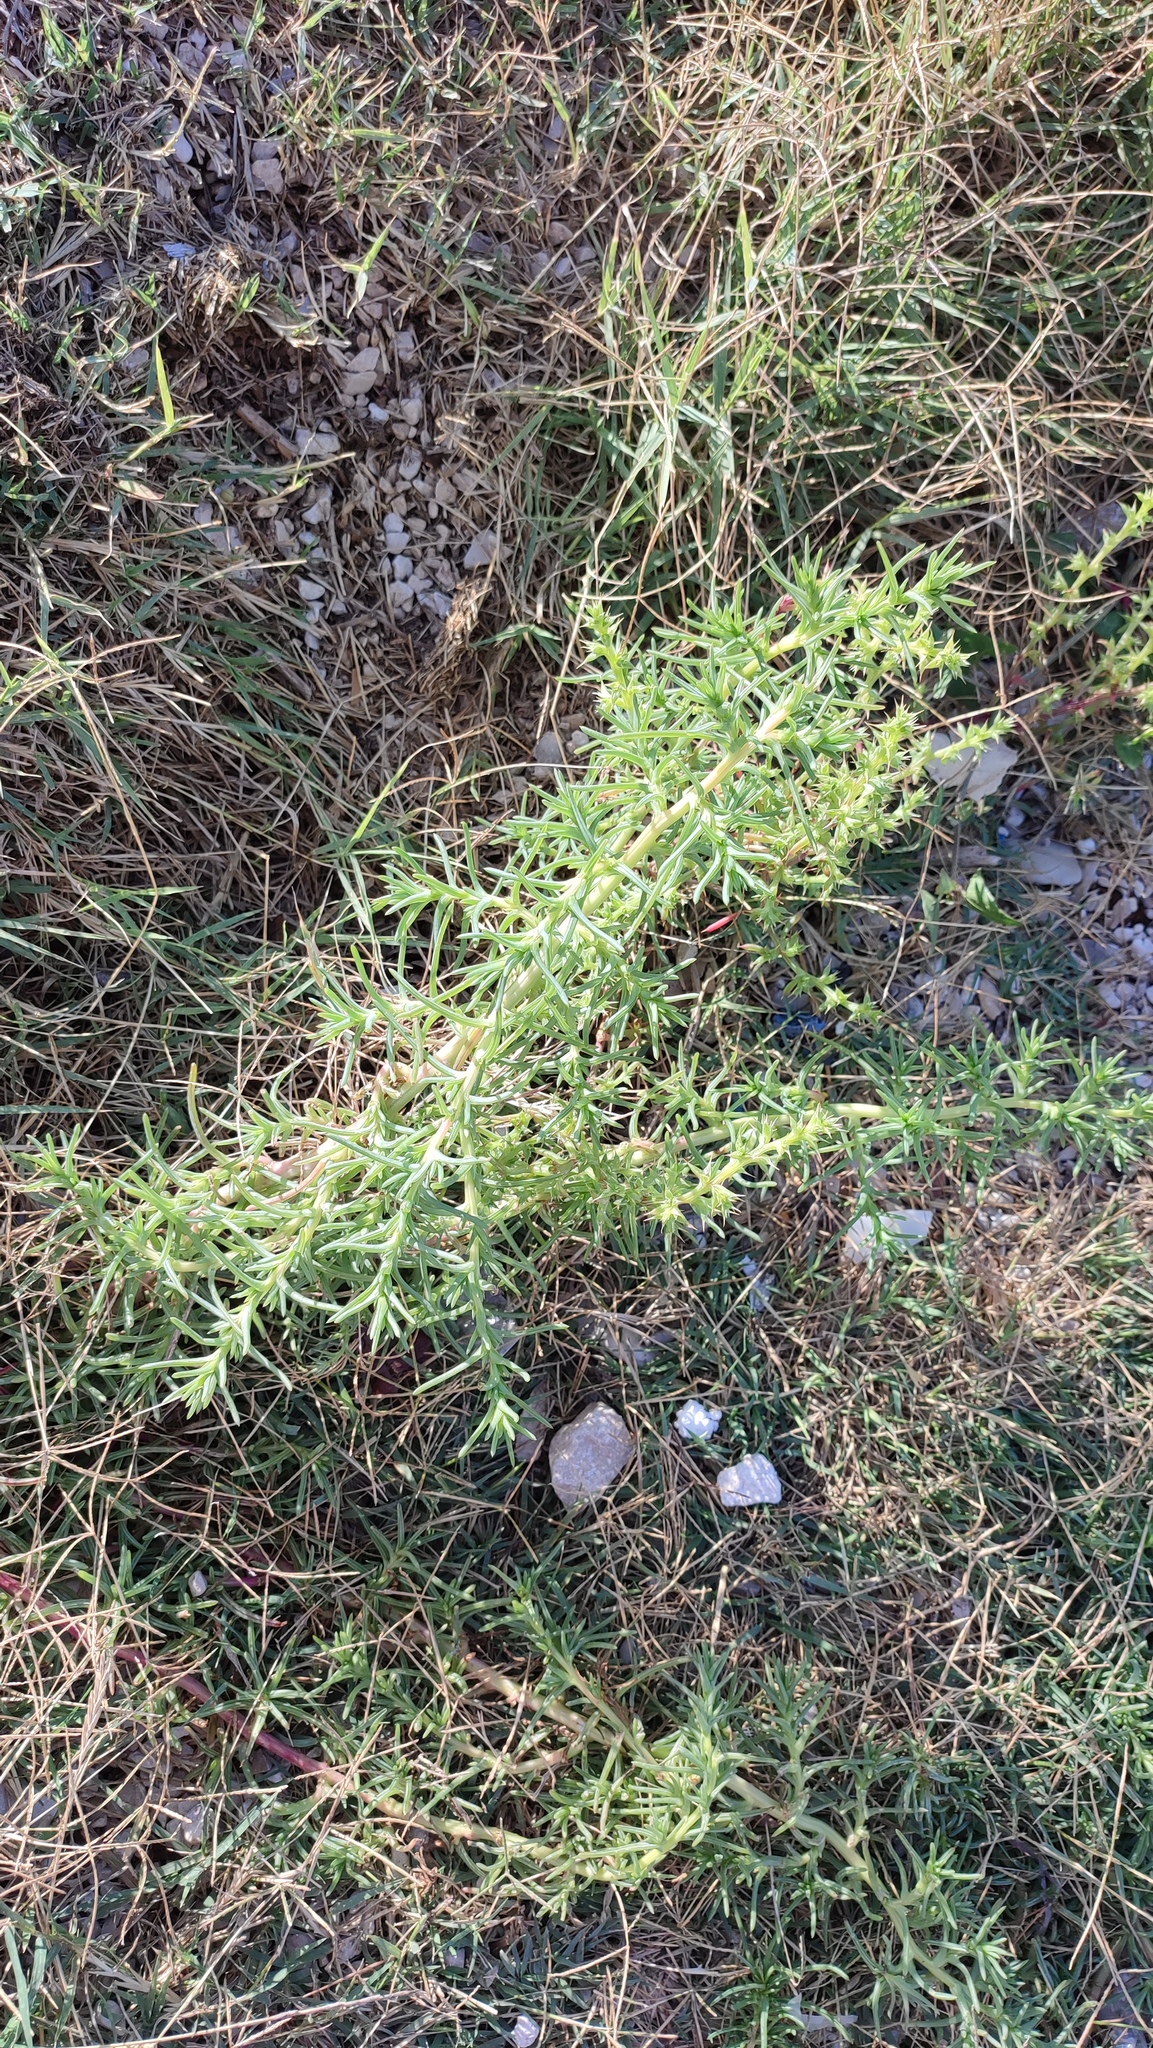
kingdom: Plantae
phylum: Tracheophyta
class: Magnoliopsida
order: Caryophyllales
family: Amaranthaceae
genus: Salsola
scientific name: Salsola soda
